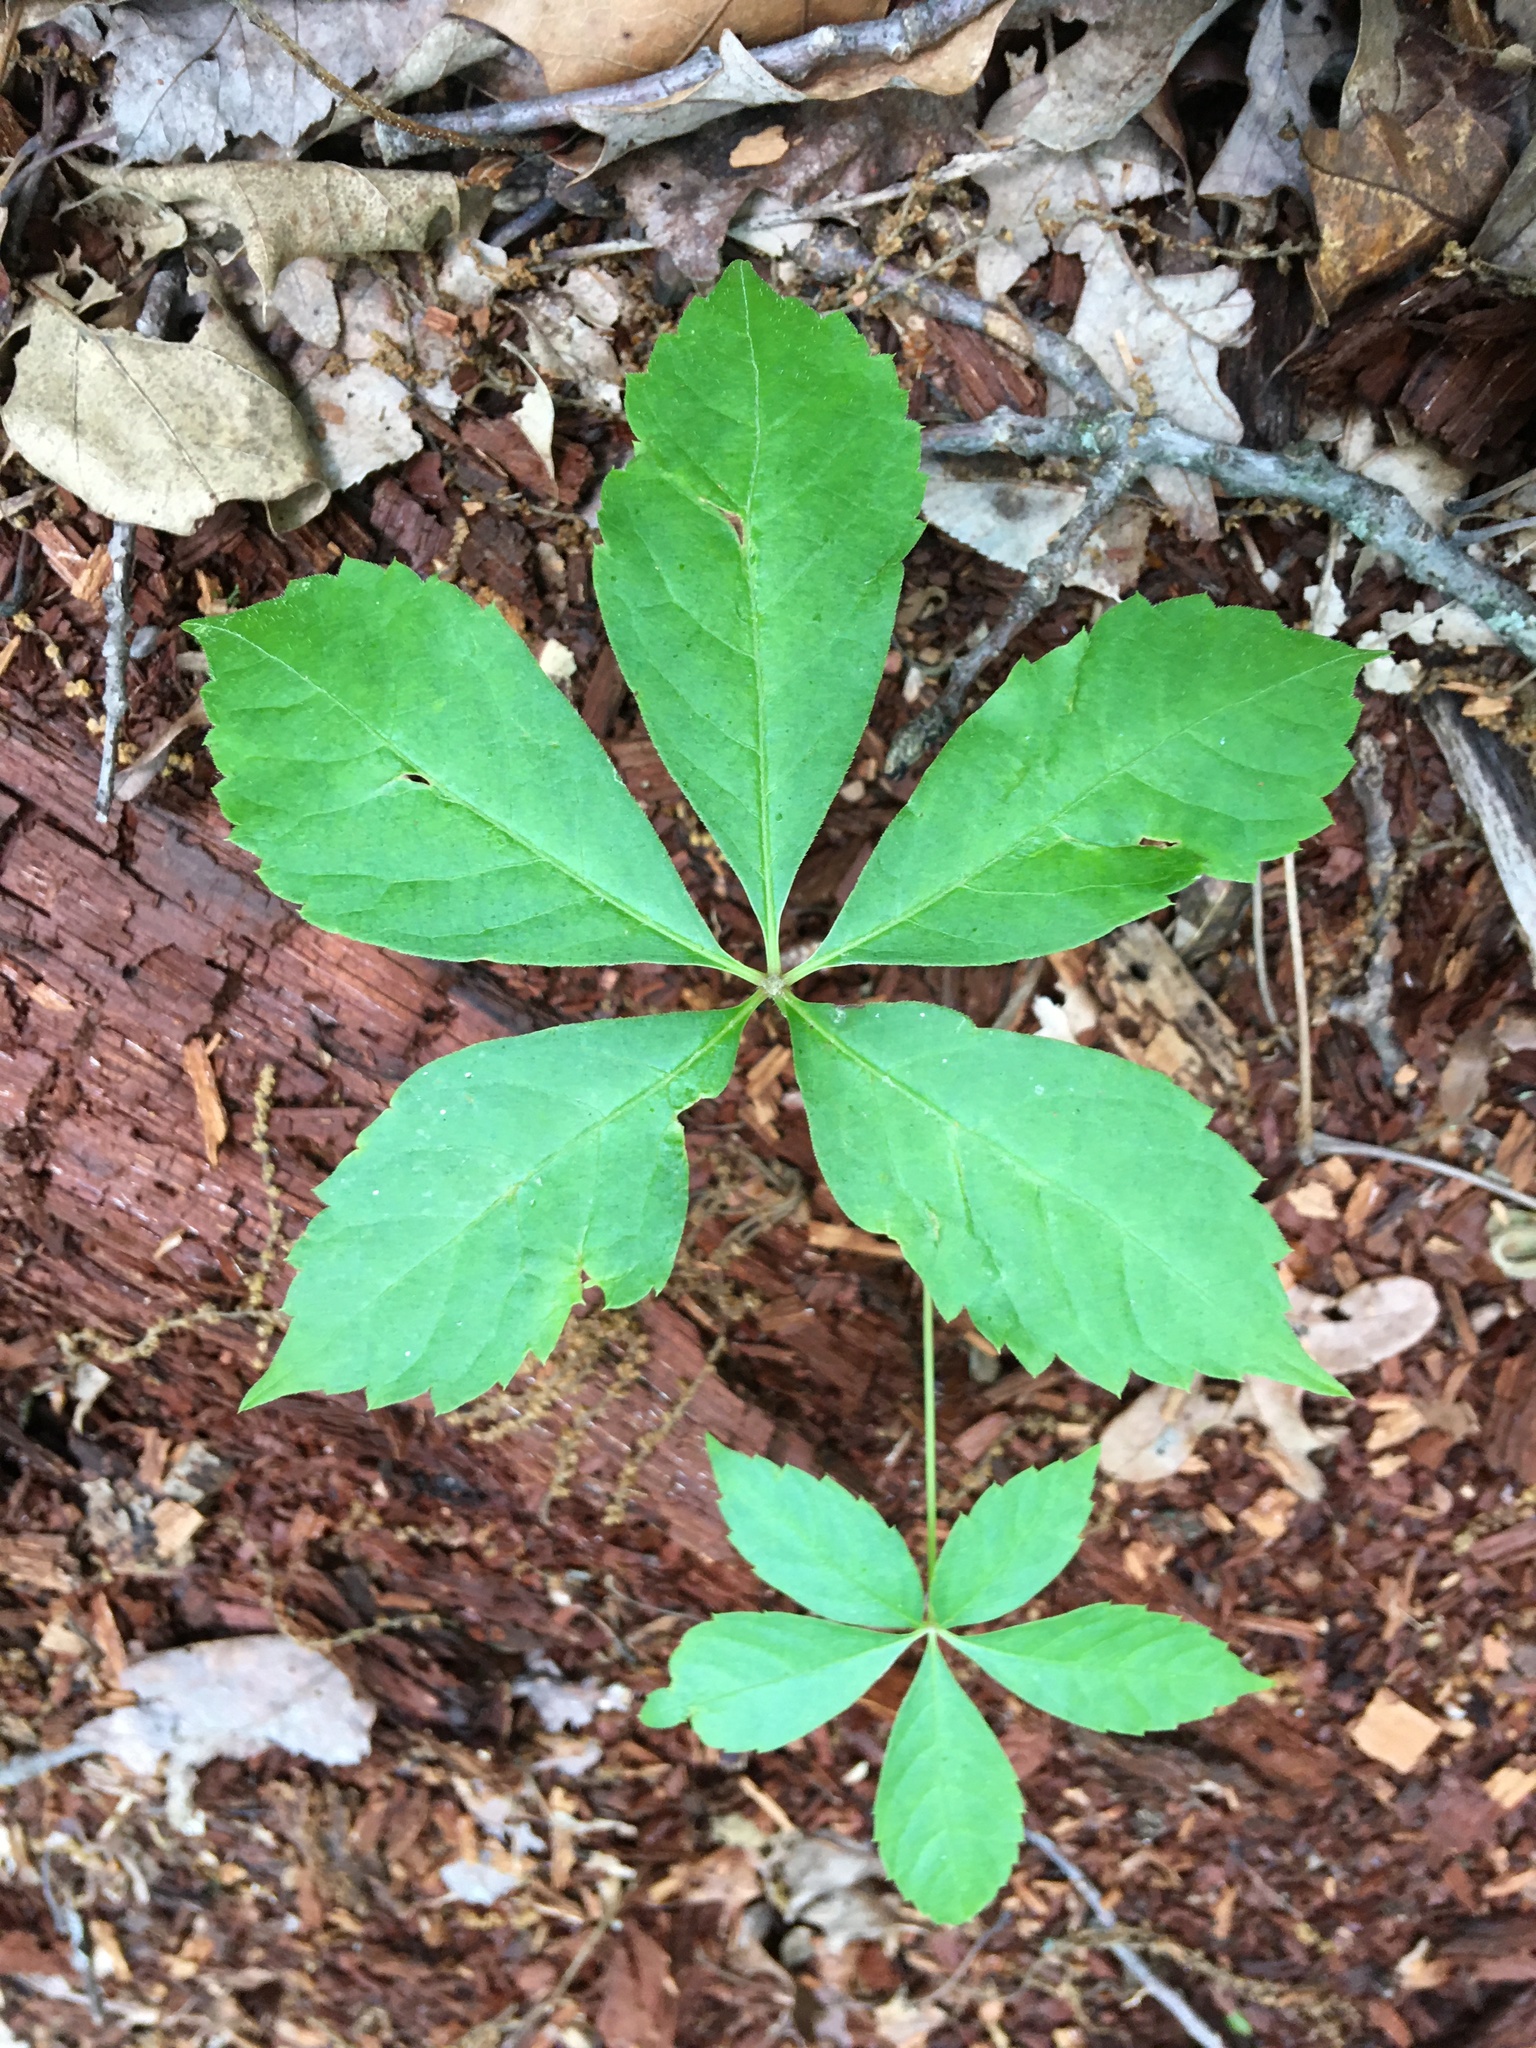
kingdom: Plantae
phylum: Tracheophyta
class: Magnoliopsida
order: Vitales
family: Vitaceae
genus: Parthenocissus
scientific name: Parthenocissus quinquefolia
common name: Virginia-creeper
